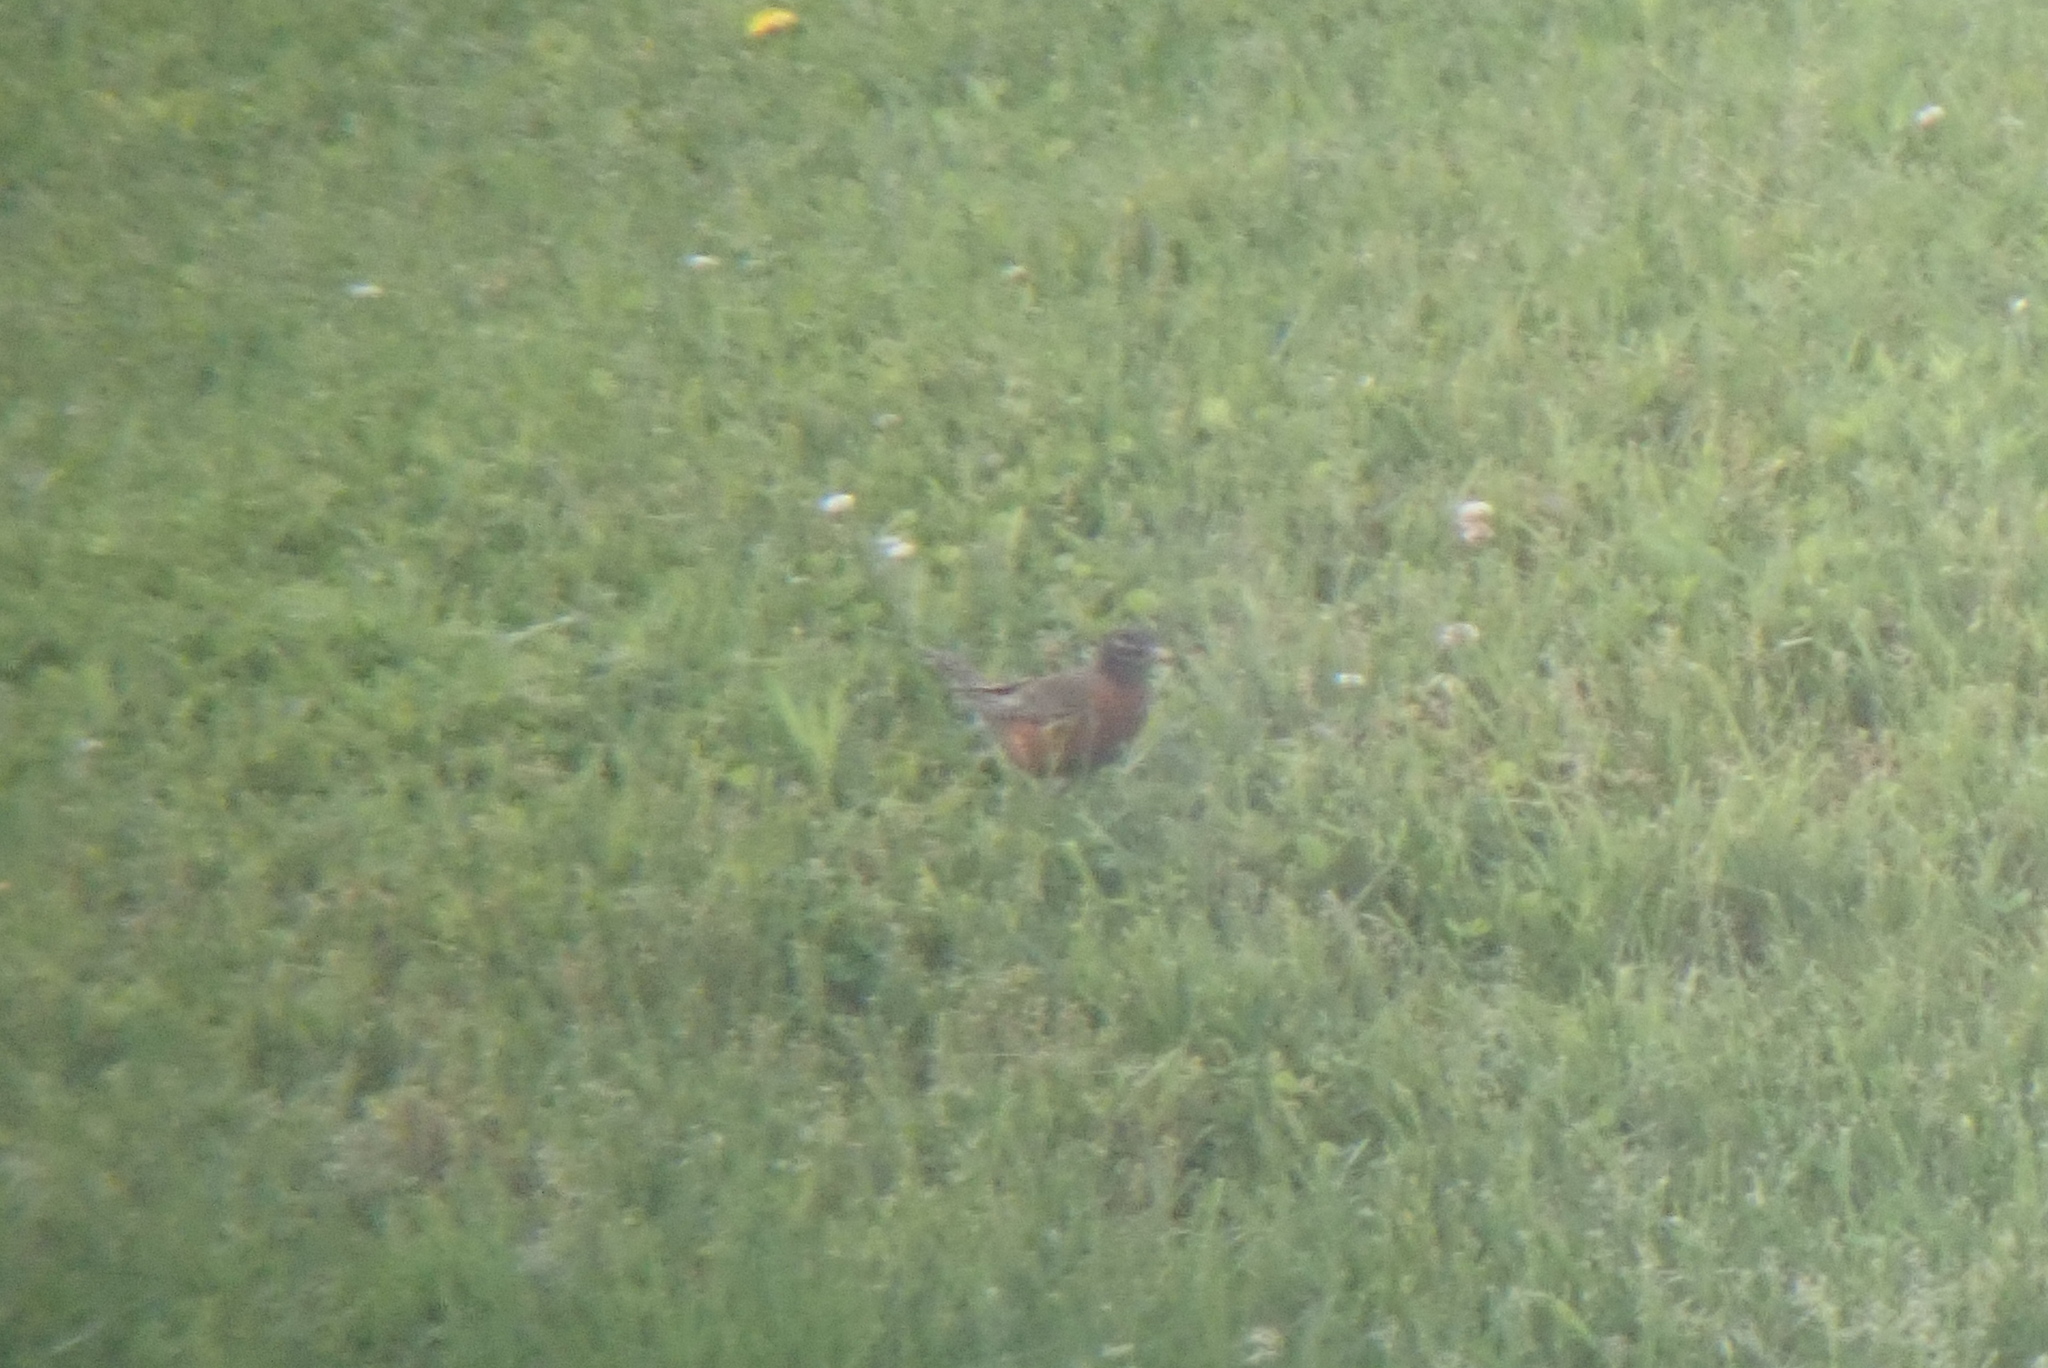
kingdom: Animalia
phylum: Chordata
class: Aves
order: Passeriformes
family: Turdidae
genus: Turdus
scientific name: Turdus migratorius
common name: American robin
